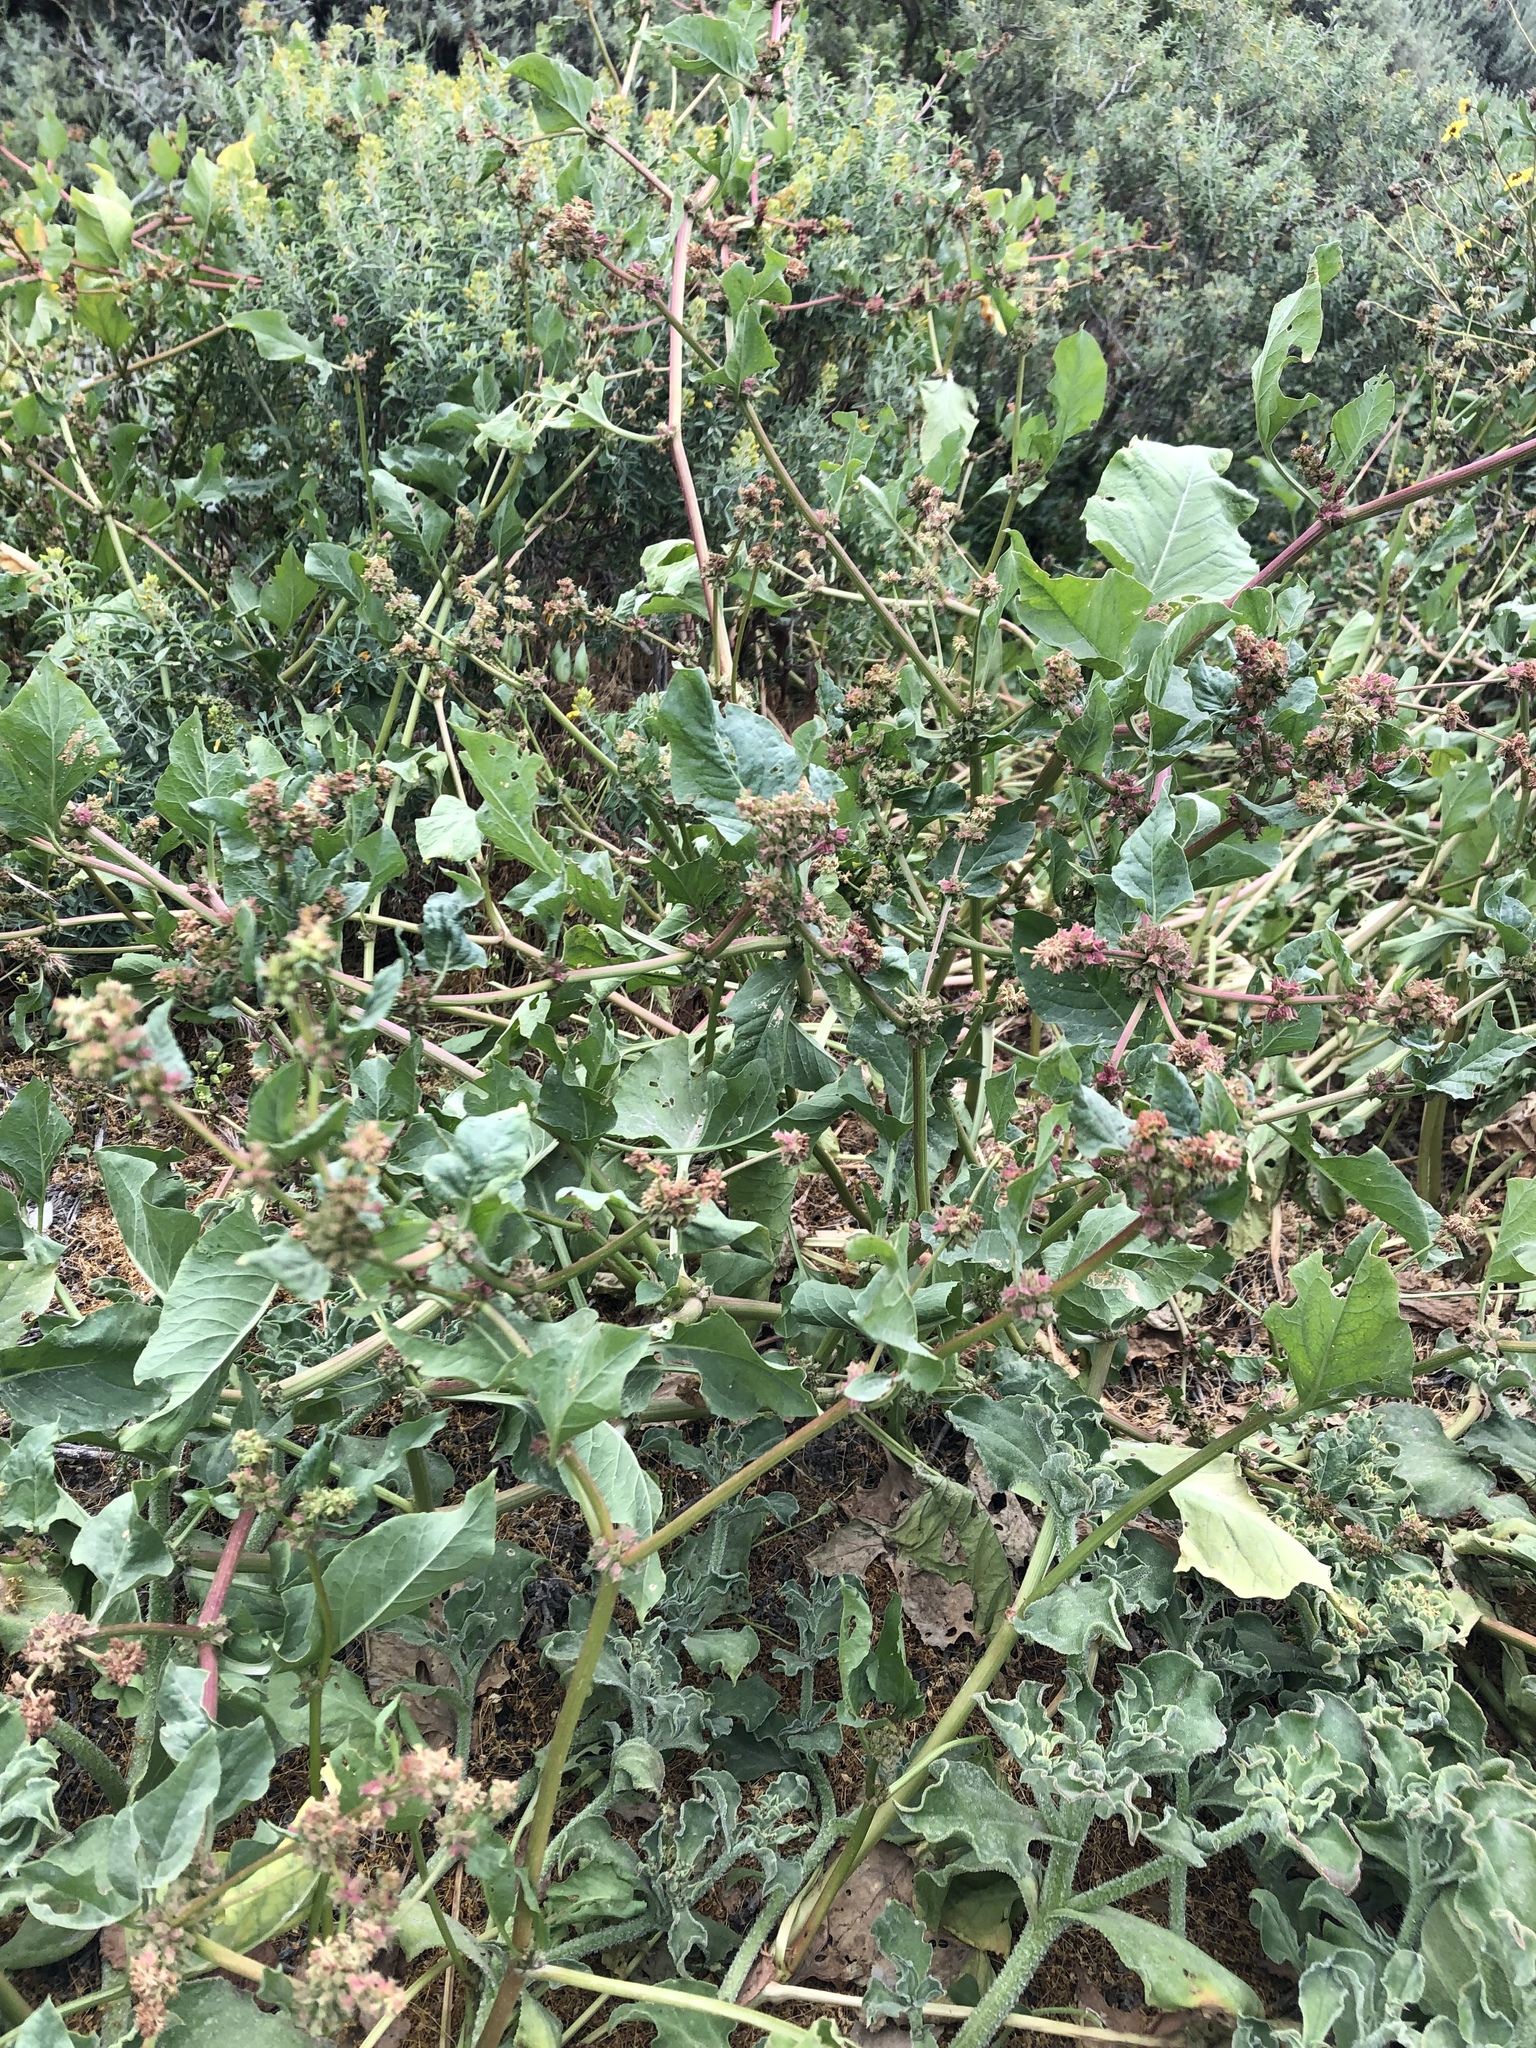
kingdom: Plantae
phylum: Tracheophyta
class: Magnoliopsida
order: Caryophyllales
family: Polygonaceae
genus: Rumex
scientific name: Rumex spinosus
